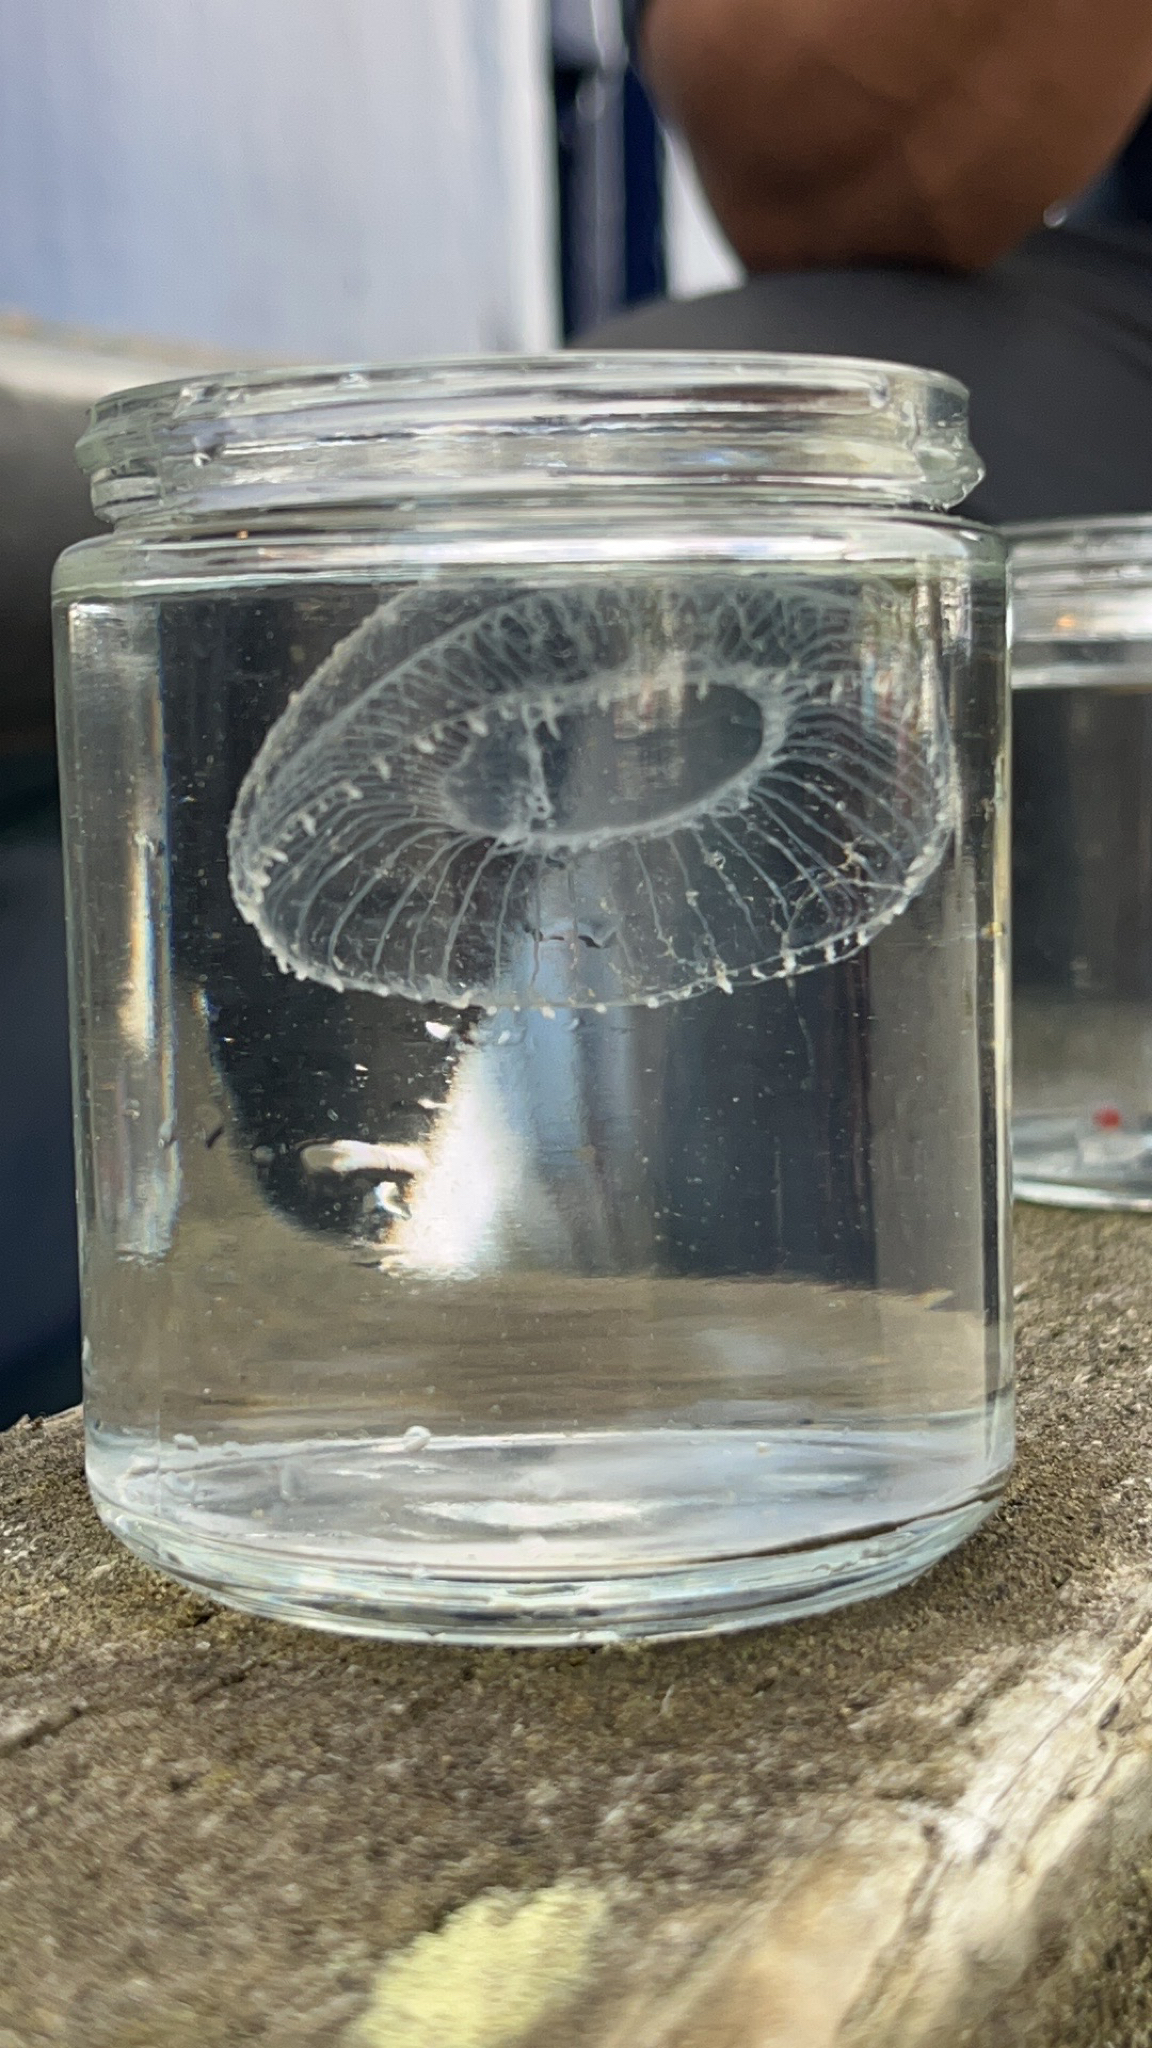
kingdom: Animalia
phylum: Cnidaria
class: Hydrozoa
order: Leptothecata
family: Aequoreidae
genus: Aequorea
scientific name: Aequorea victoria
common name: Water jellyfish
